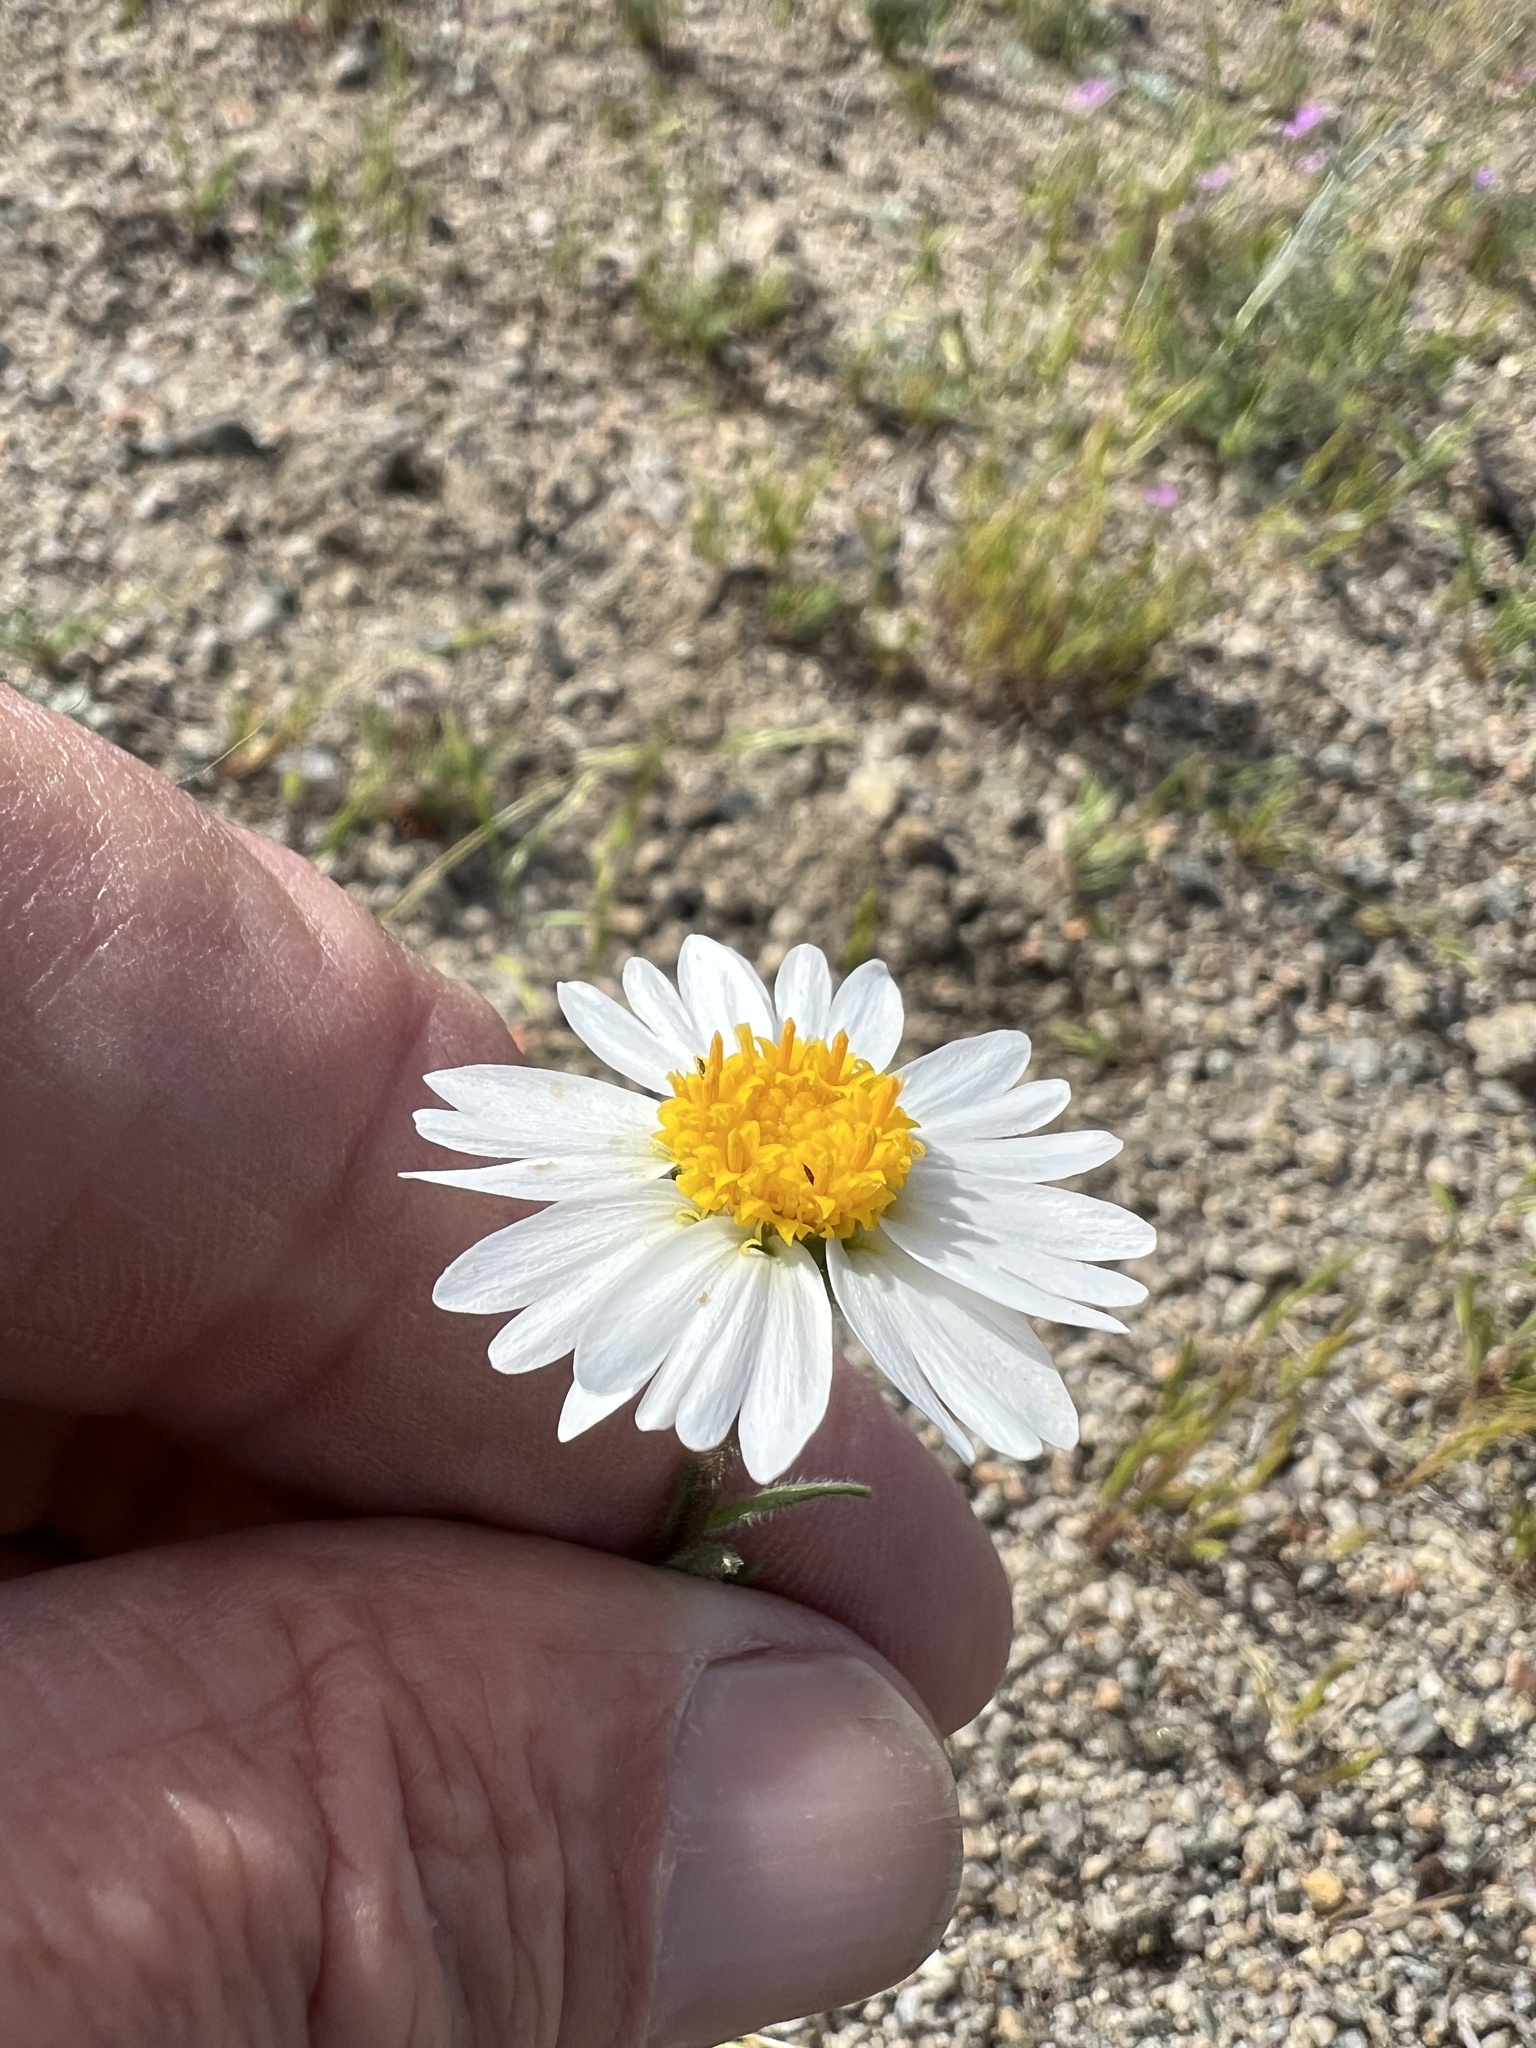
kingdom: Plantae
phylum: Tracheophyta
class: Magnoliopsida
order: Asterales
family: Asteraceae
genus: Layia
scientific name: Layia glandulosa
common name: White layia
